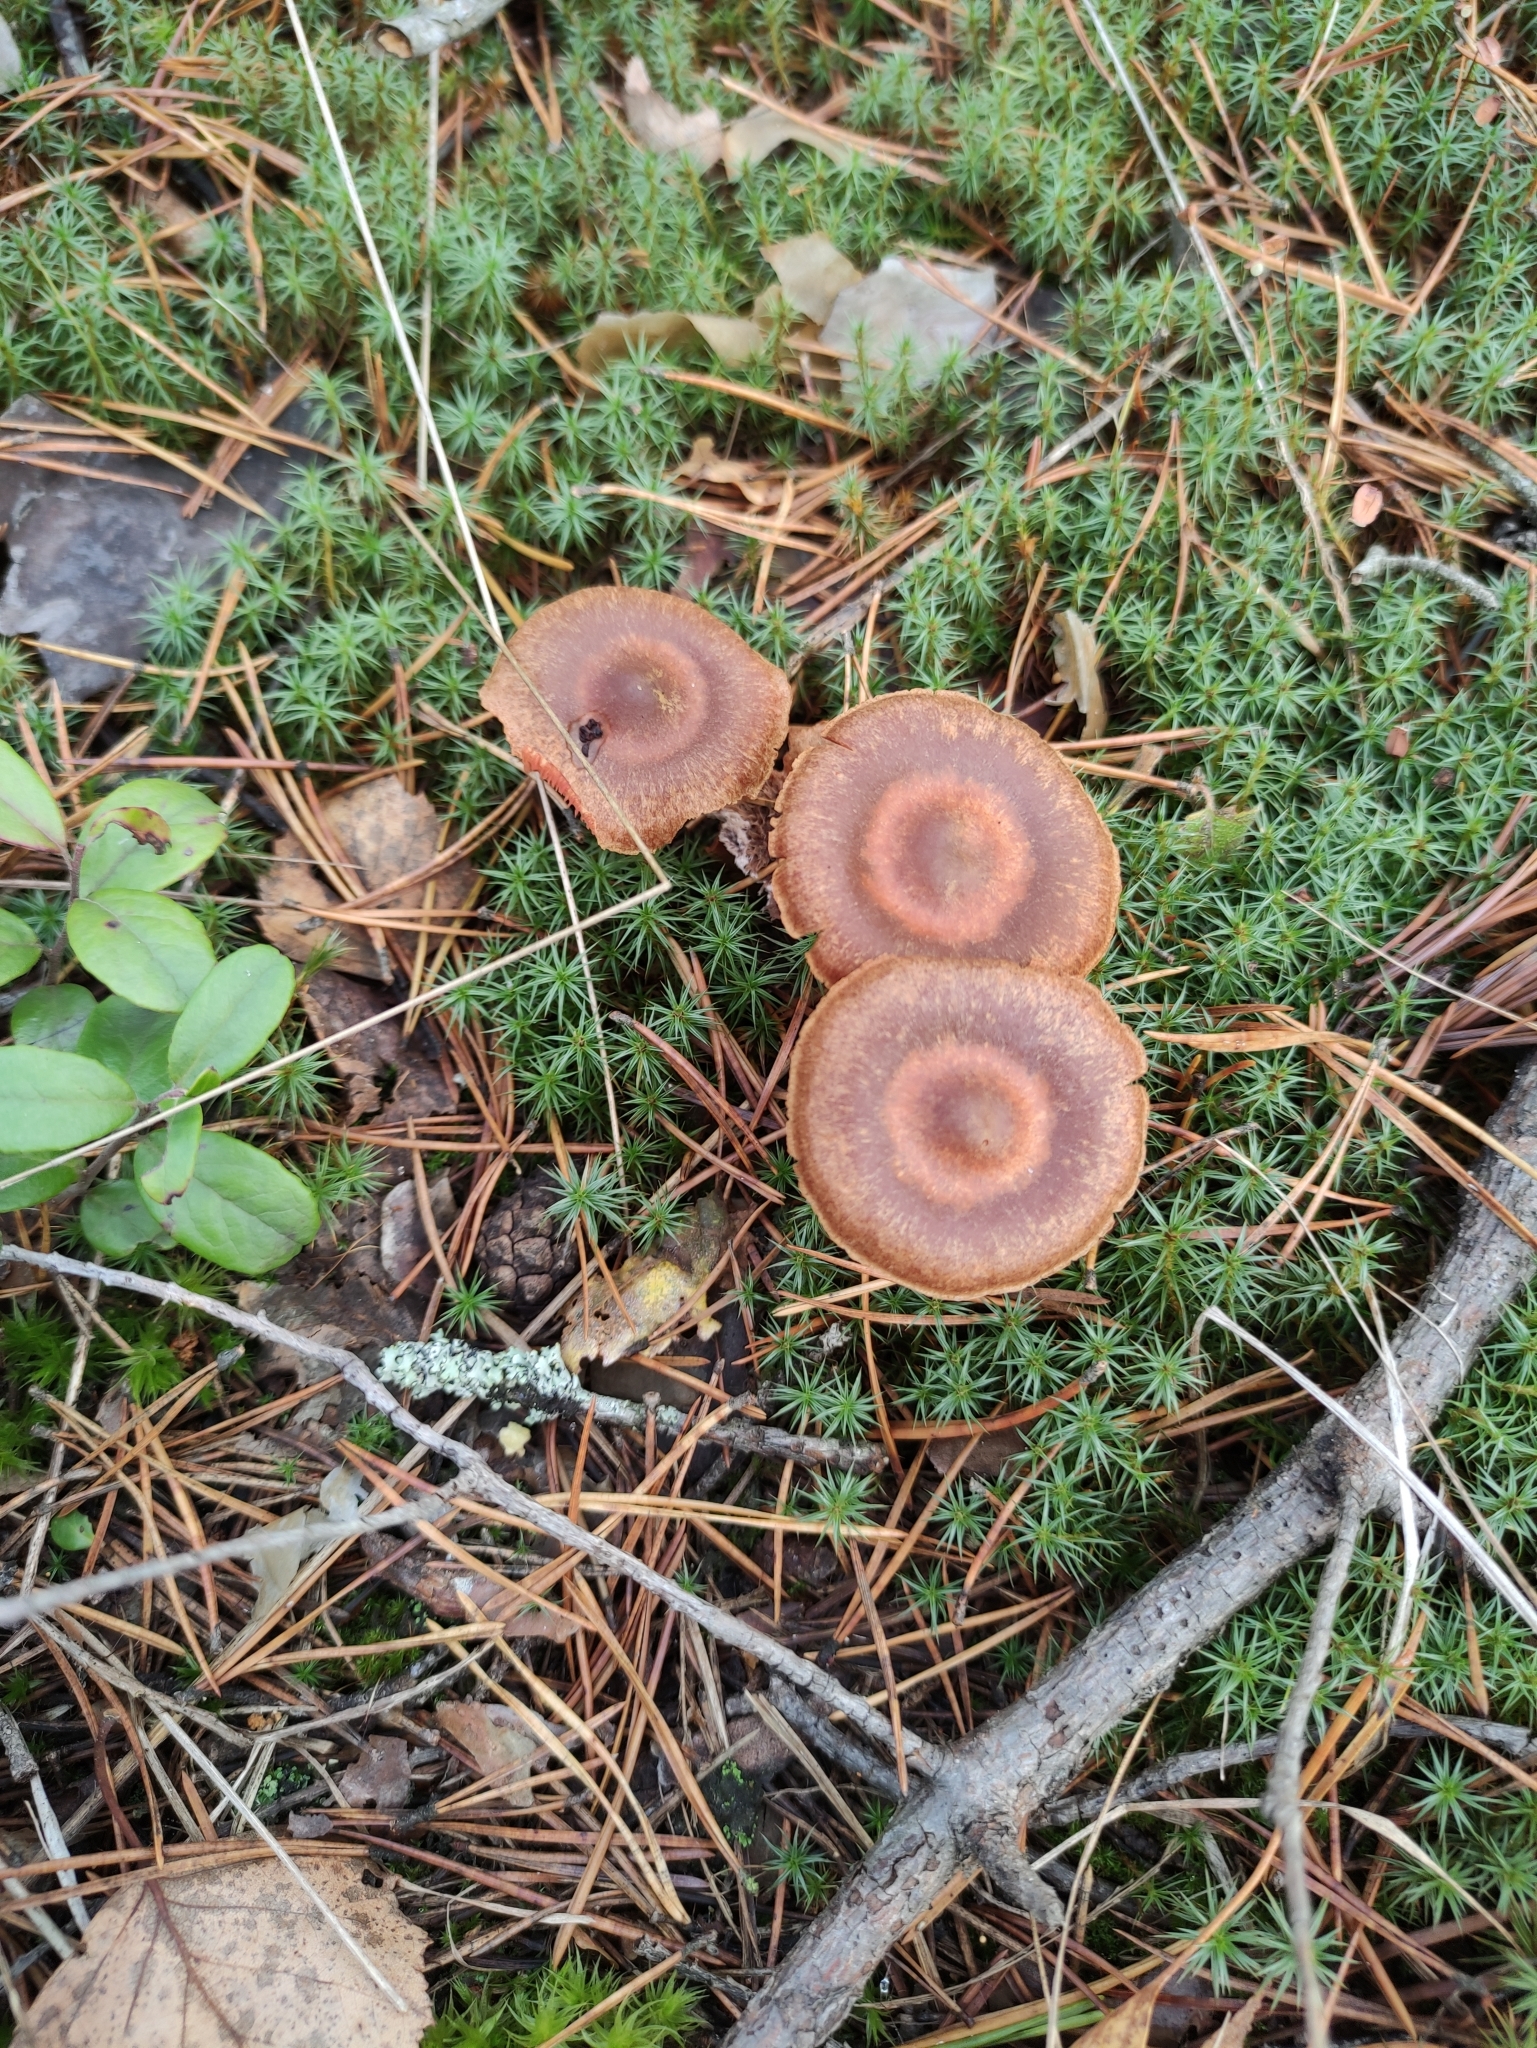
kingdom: Fungi
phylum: Basidiomycota
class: Agaricomycetes
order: Agaricales
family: Cortinariaceae
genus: Cortinarius
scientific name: Cortinarius semisanguineus
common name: Surprise webcap
